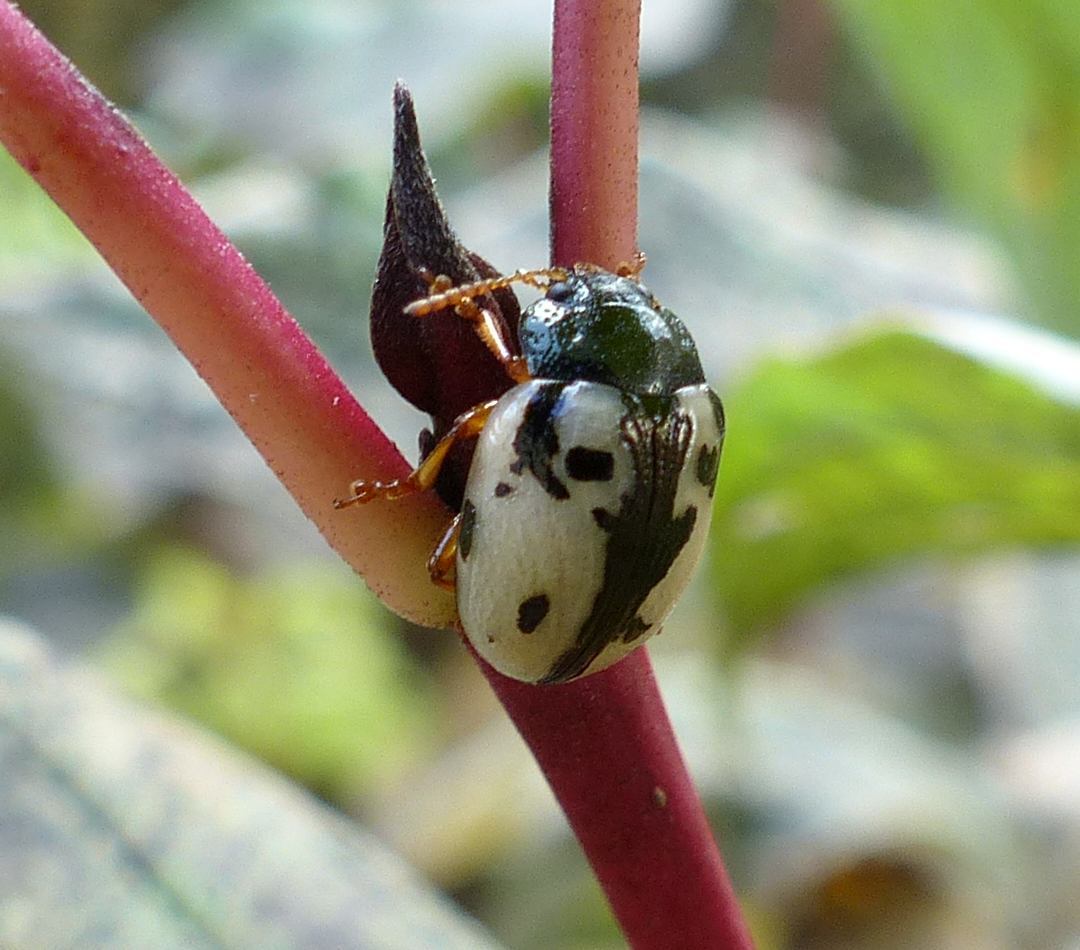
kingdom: Animalia
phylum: Arthropoda
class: Insecta
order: Coleoptera
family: Chrysomelidae
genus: Calligrapha
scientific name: Calligrapha rowena
